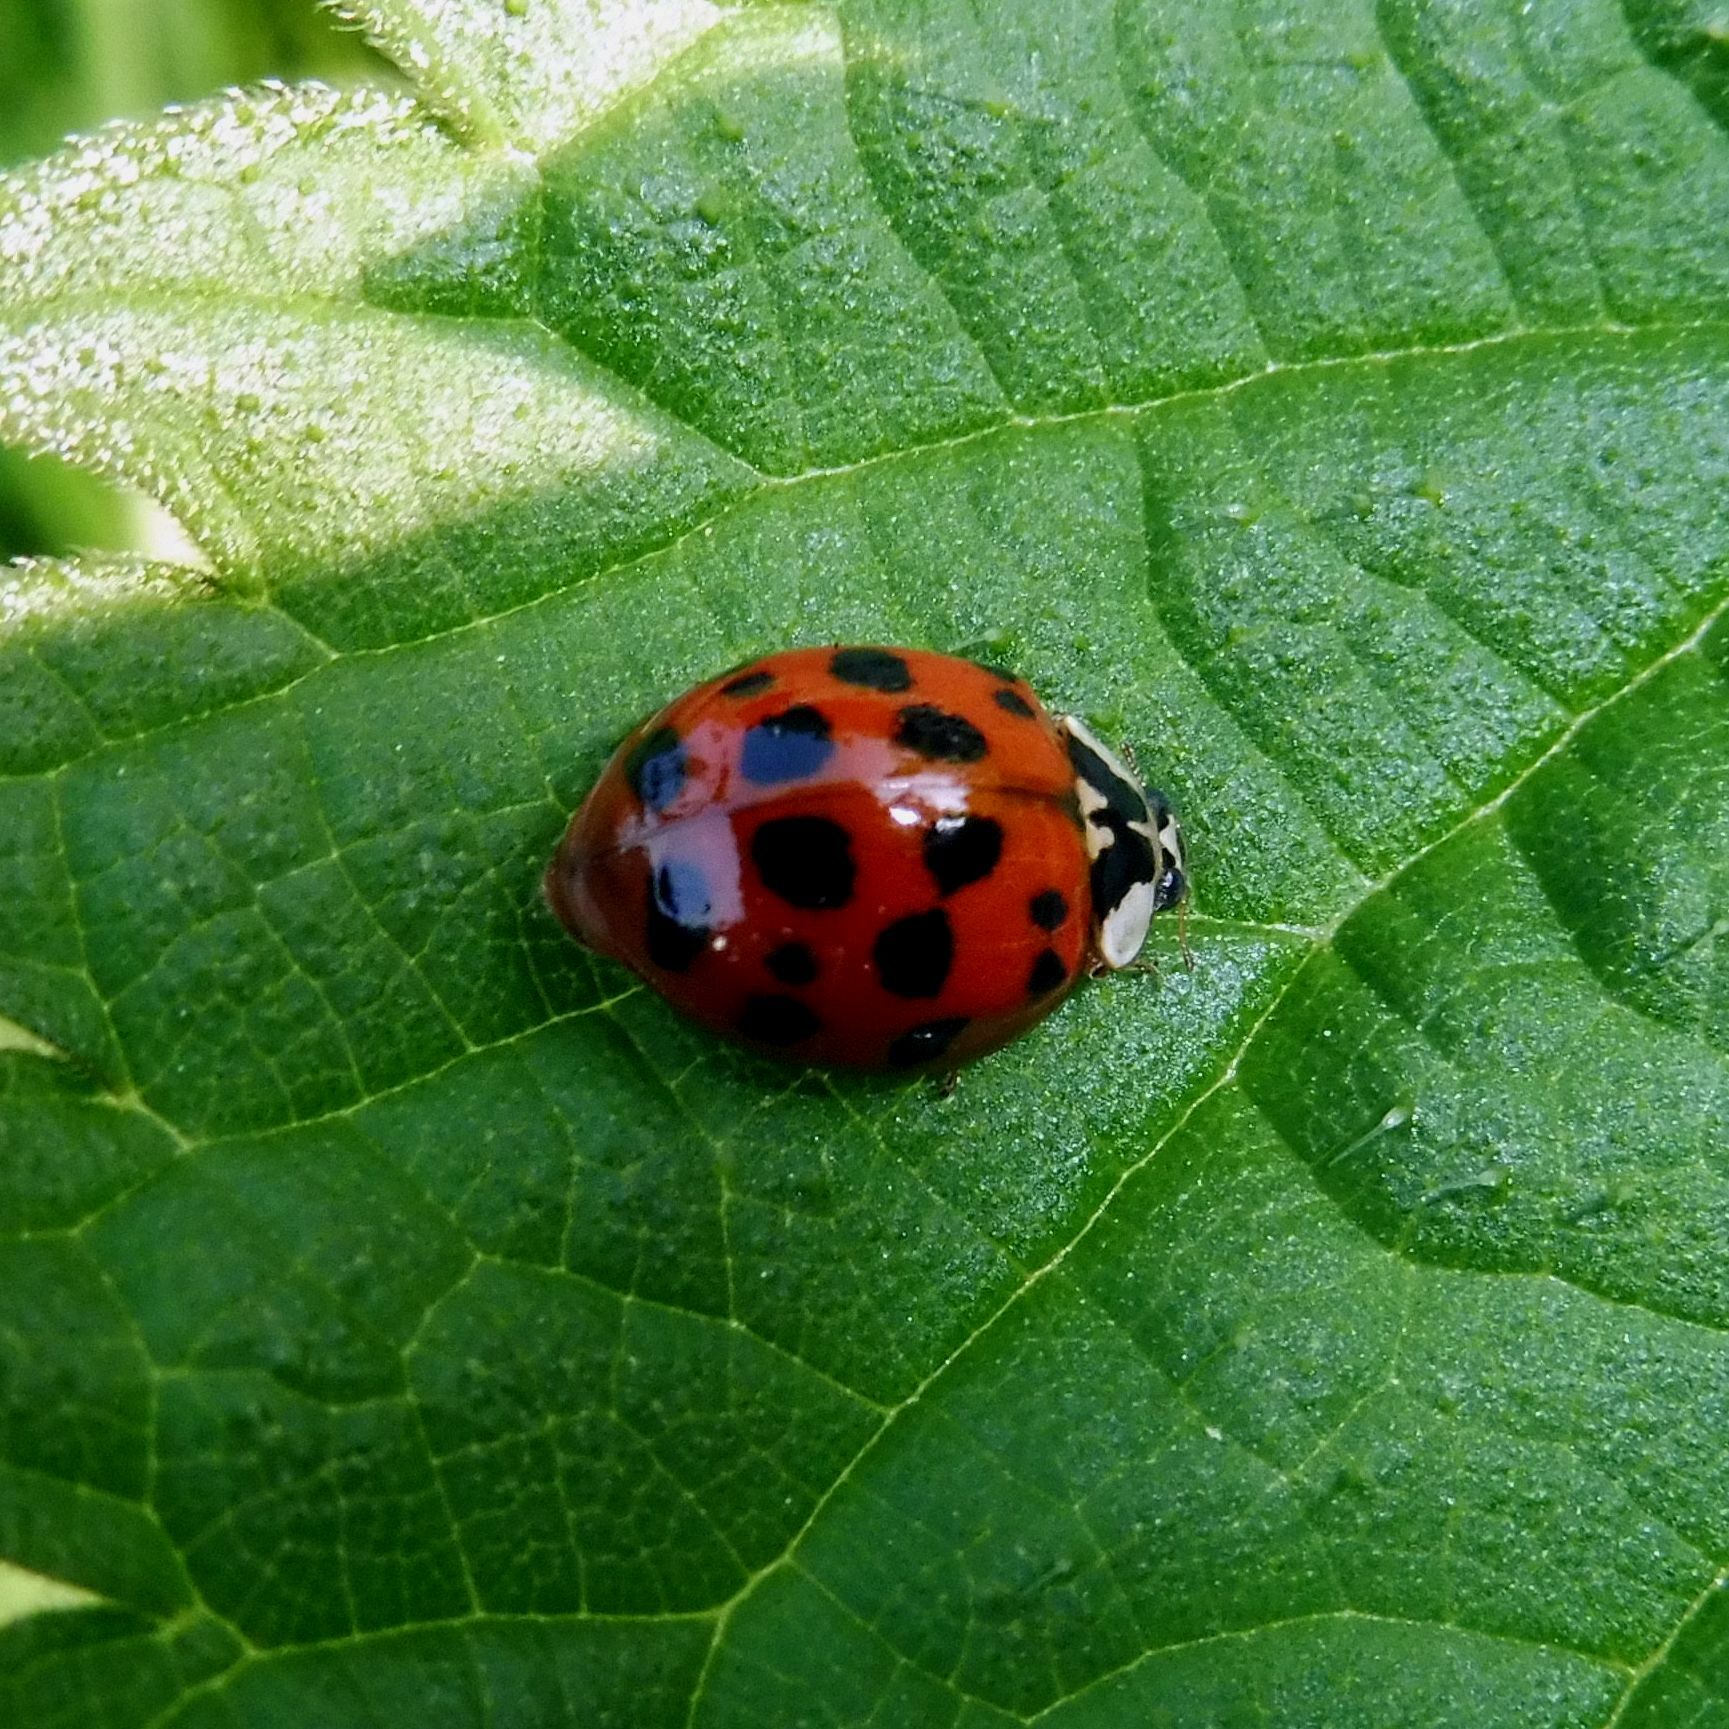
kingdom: Animalia
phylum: Arthropoda
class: Insecta
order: Coleoptera
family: Coccinellidae
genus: Harmonia
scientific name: Harmonia axyridis
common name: Harlequin ladybird
